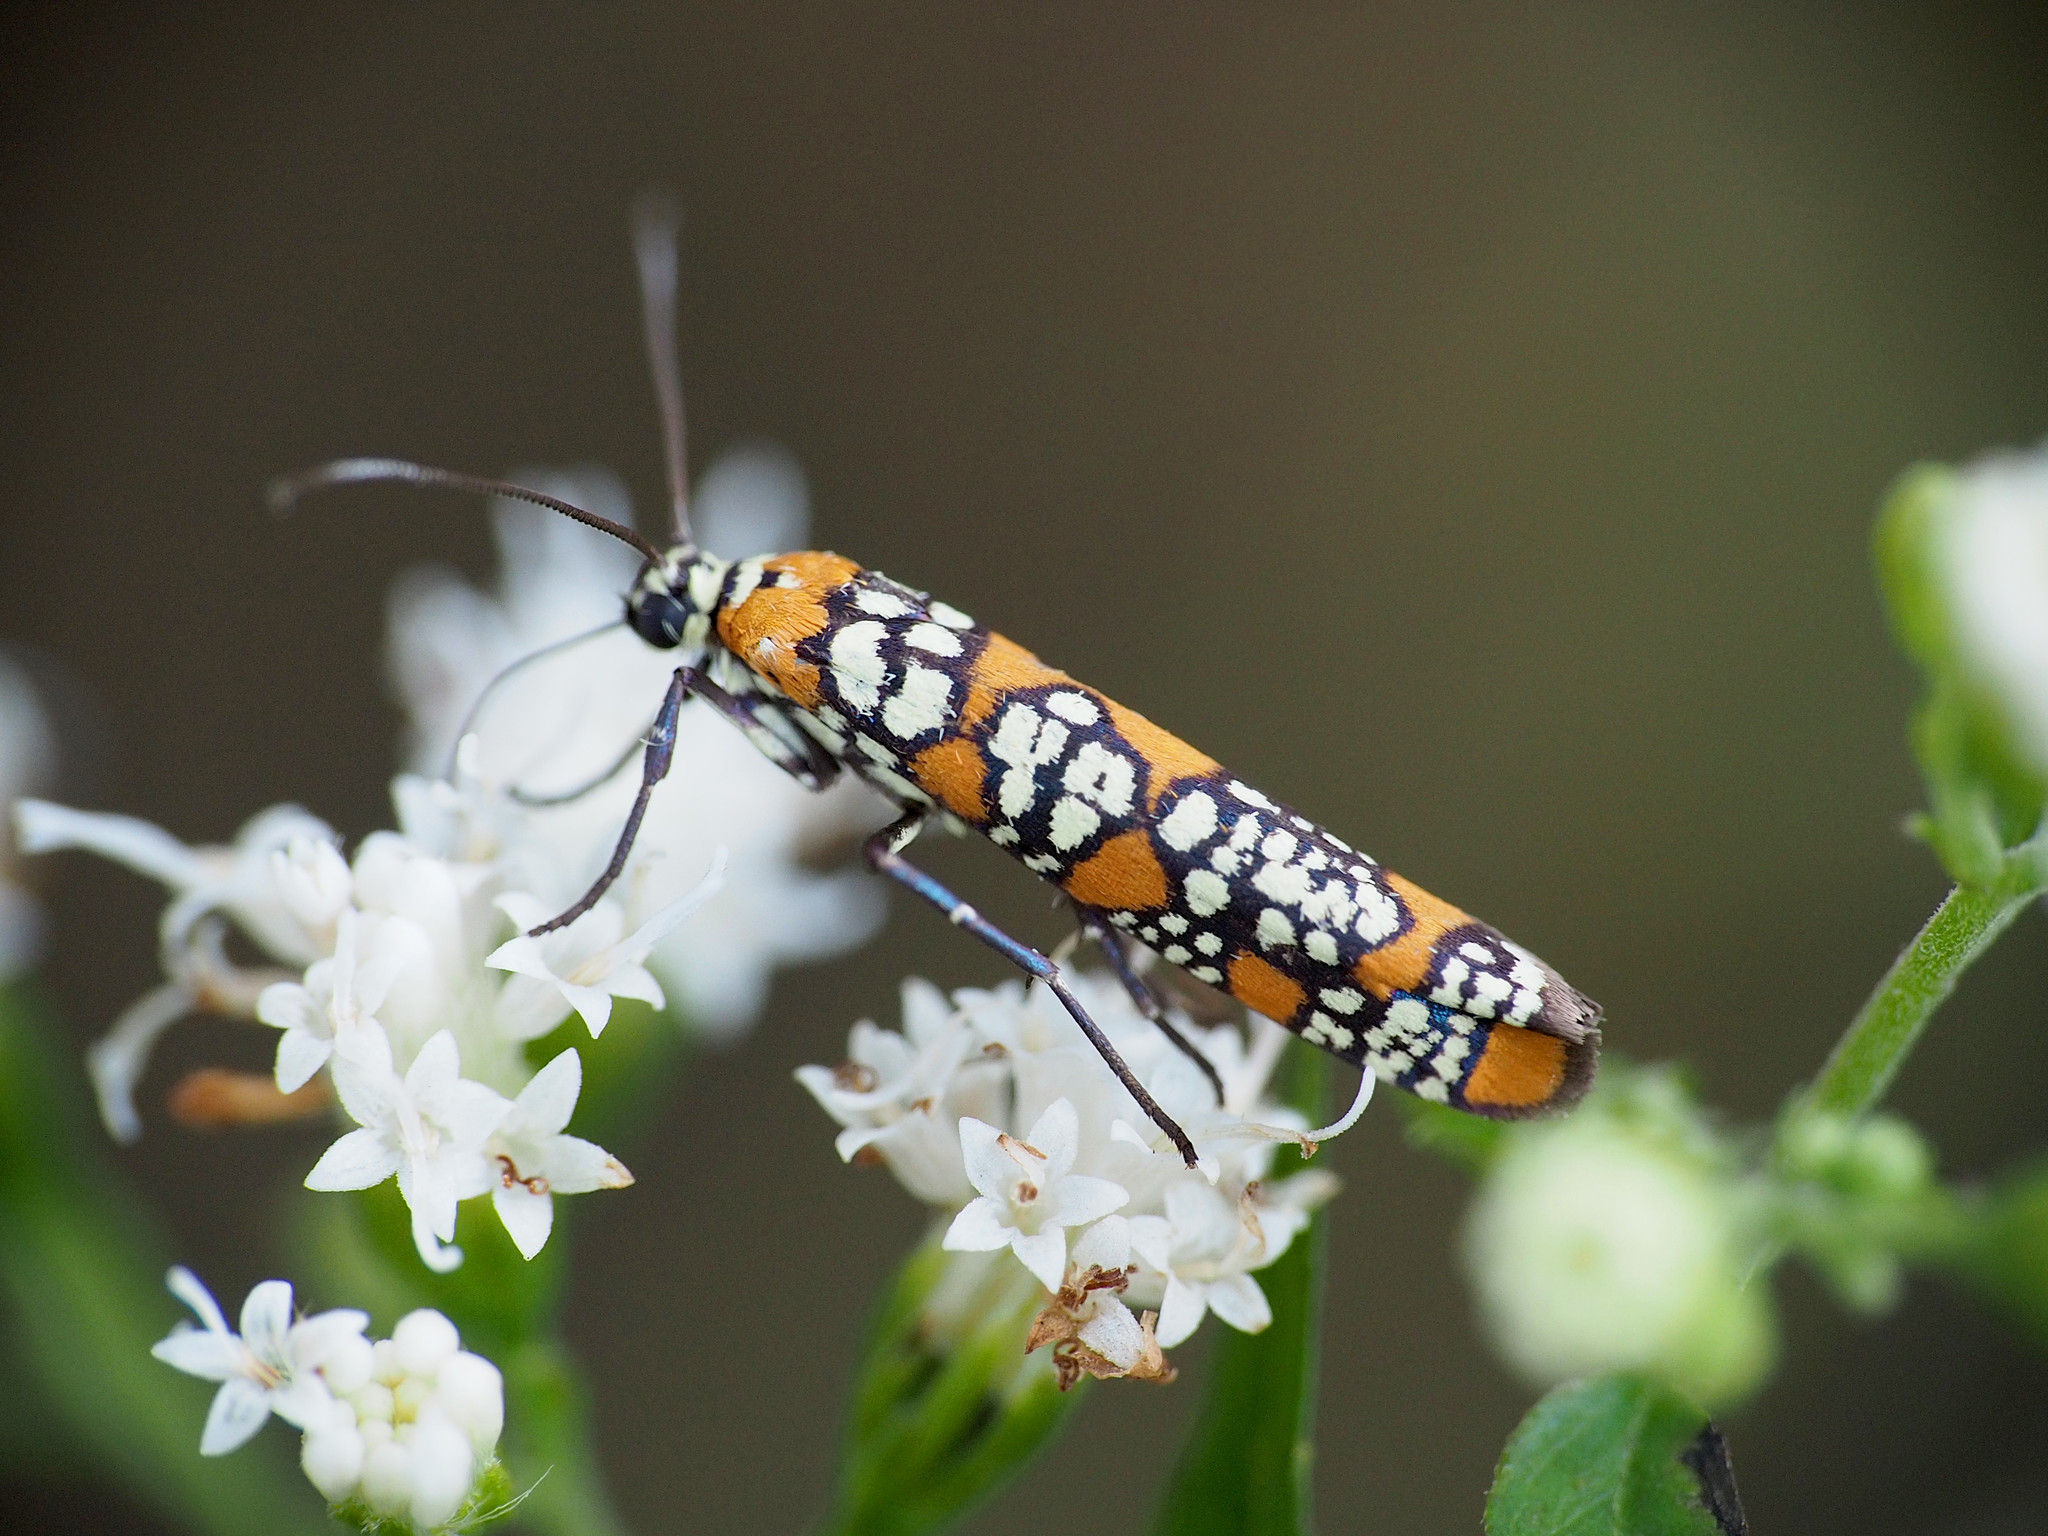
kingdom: Animalia
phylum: Arthropoda
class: Insecta
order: Lepidoptera
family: Attevidae
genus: Atteva
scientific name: Atteva punctella
